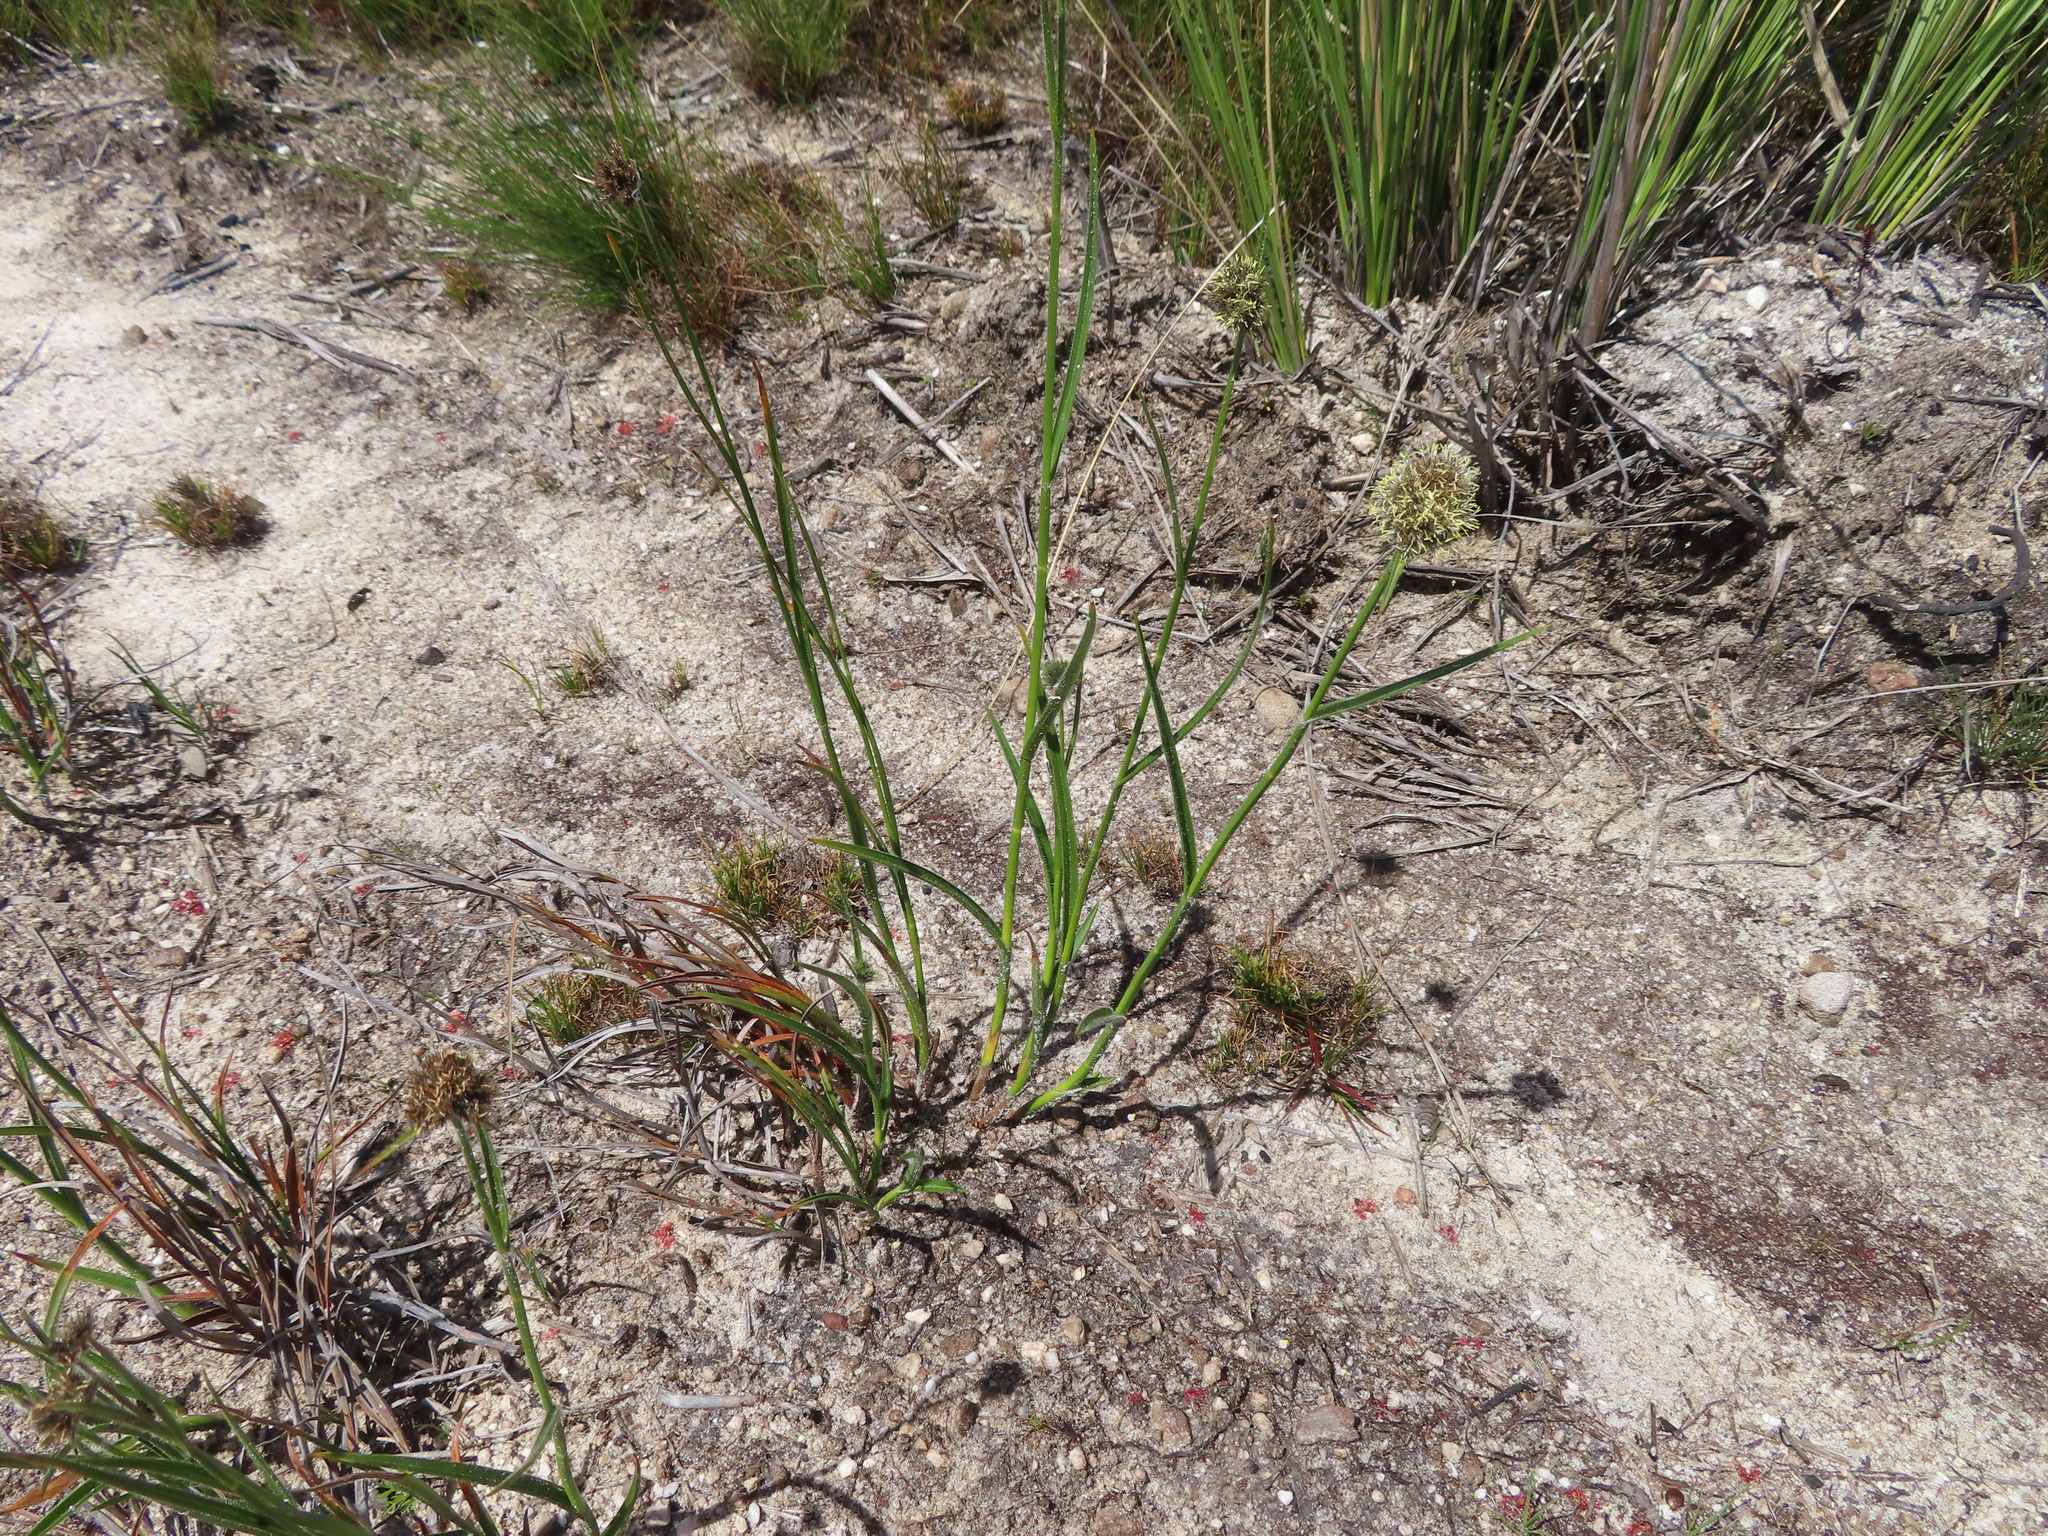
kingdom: Plantae
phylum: Tracheophyta
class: Liliopsida
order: Poales
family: Cyperaceae
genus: Fuirena
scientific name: Fuirena hirsuta
